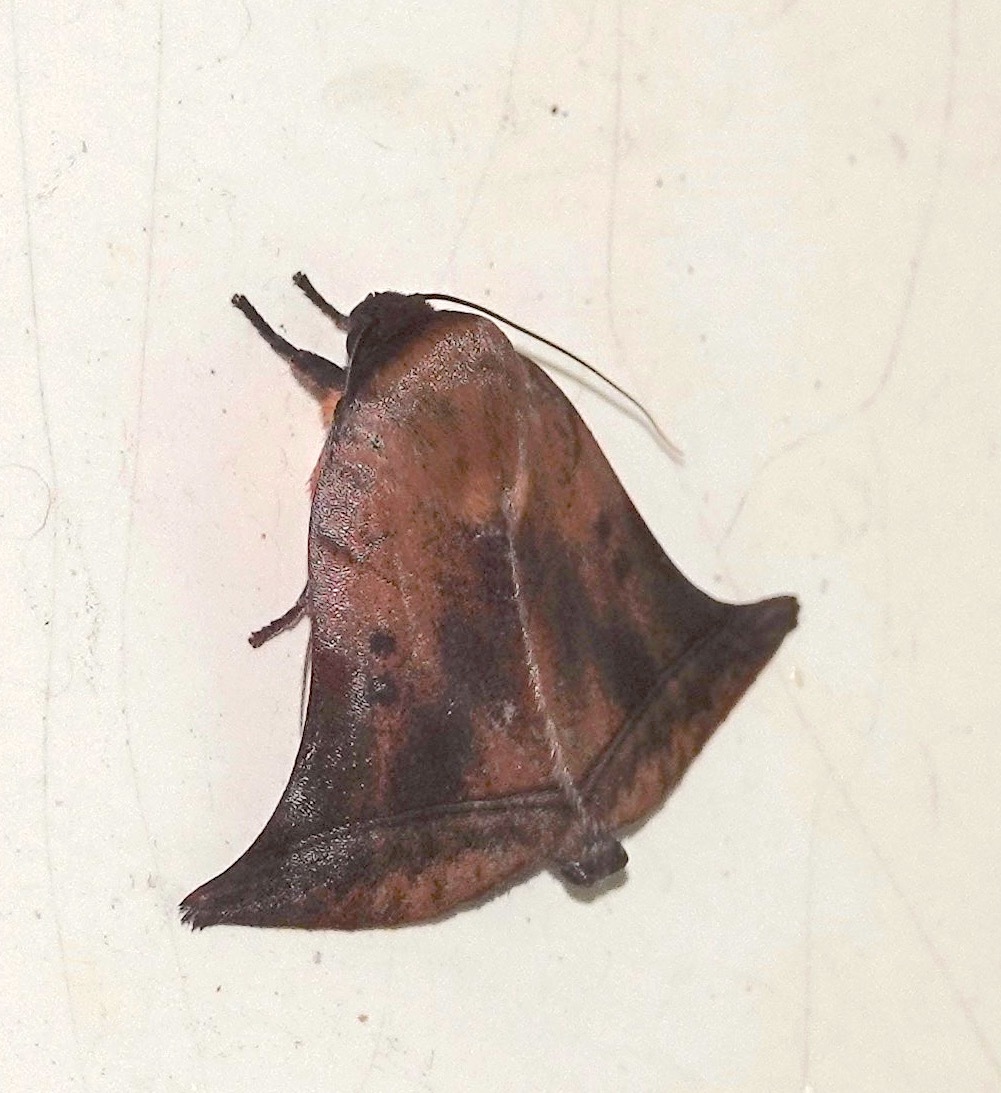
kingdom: Animalia
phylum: Arthropoda
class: Insecta
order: Lepidoptera
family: Nolidae
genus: Diehlea
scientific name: Diehlea ducalis
